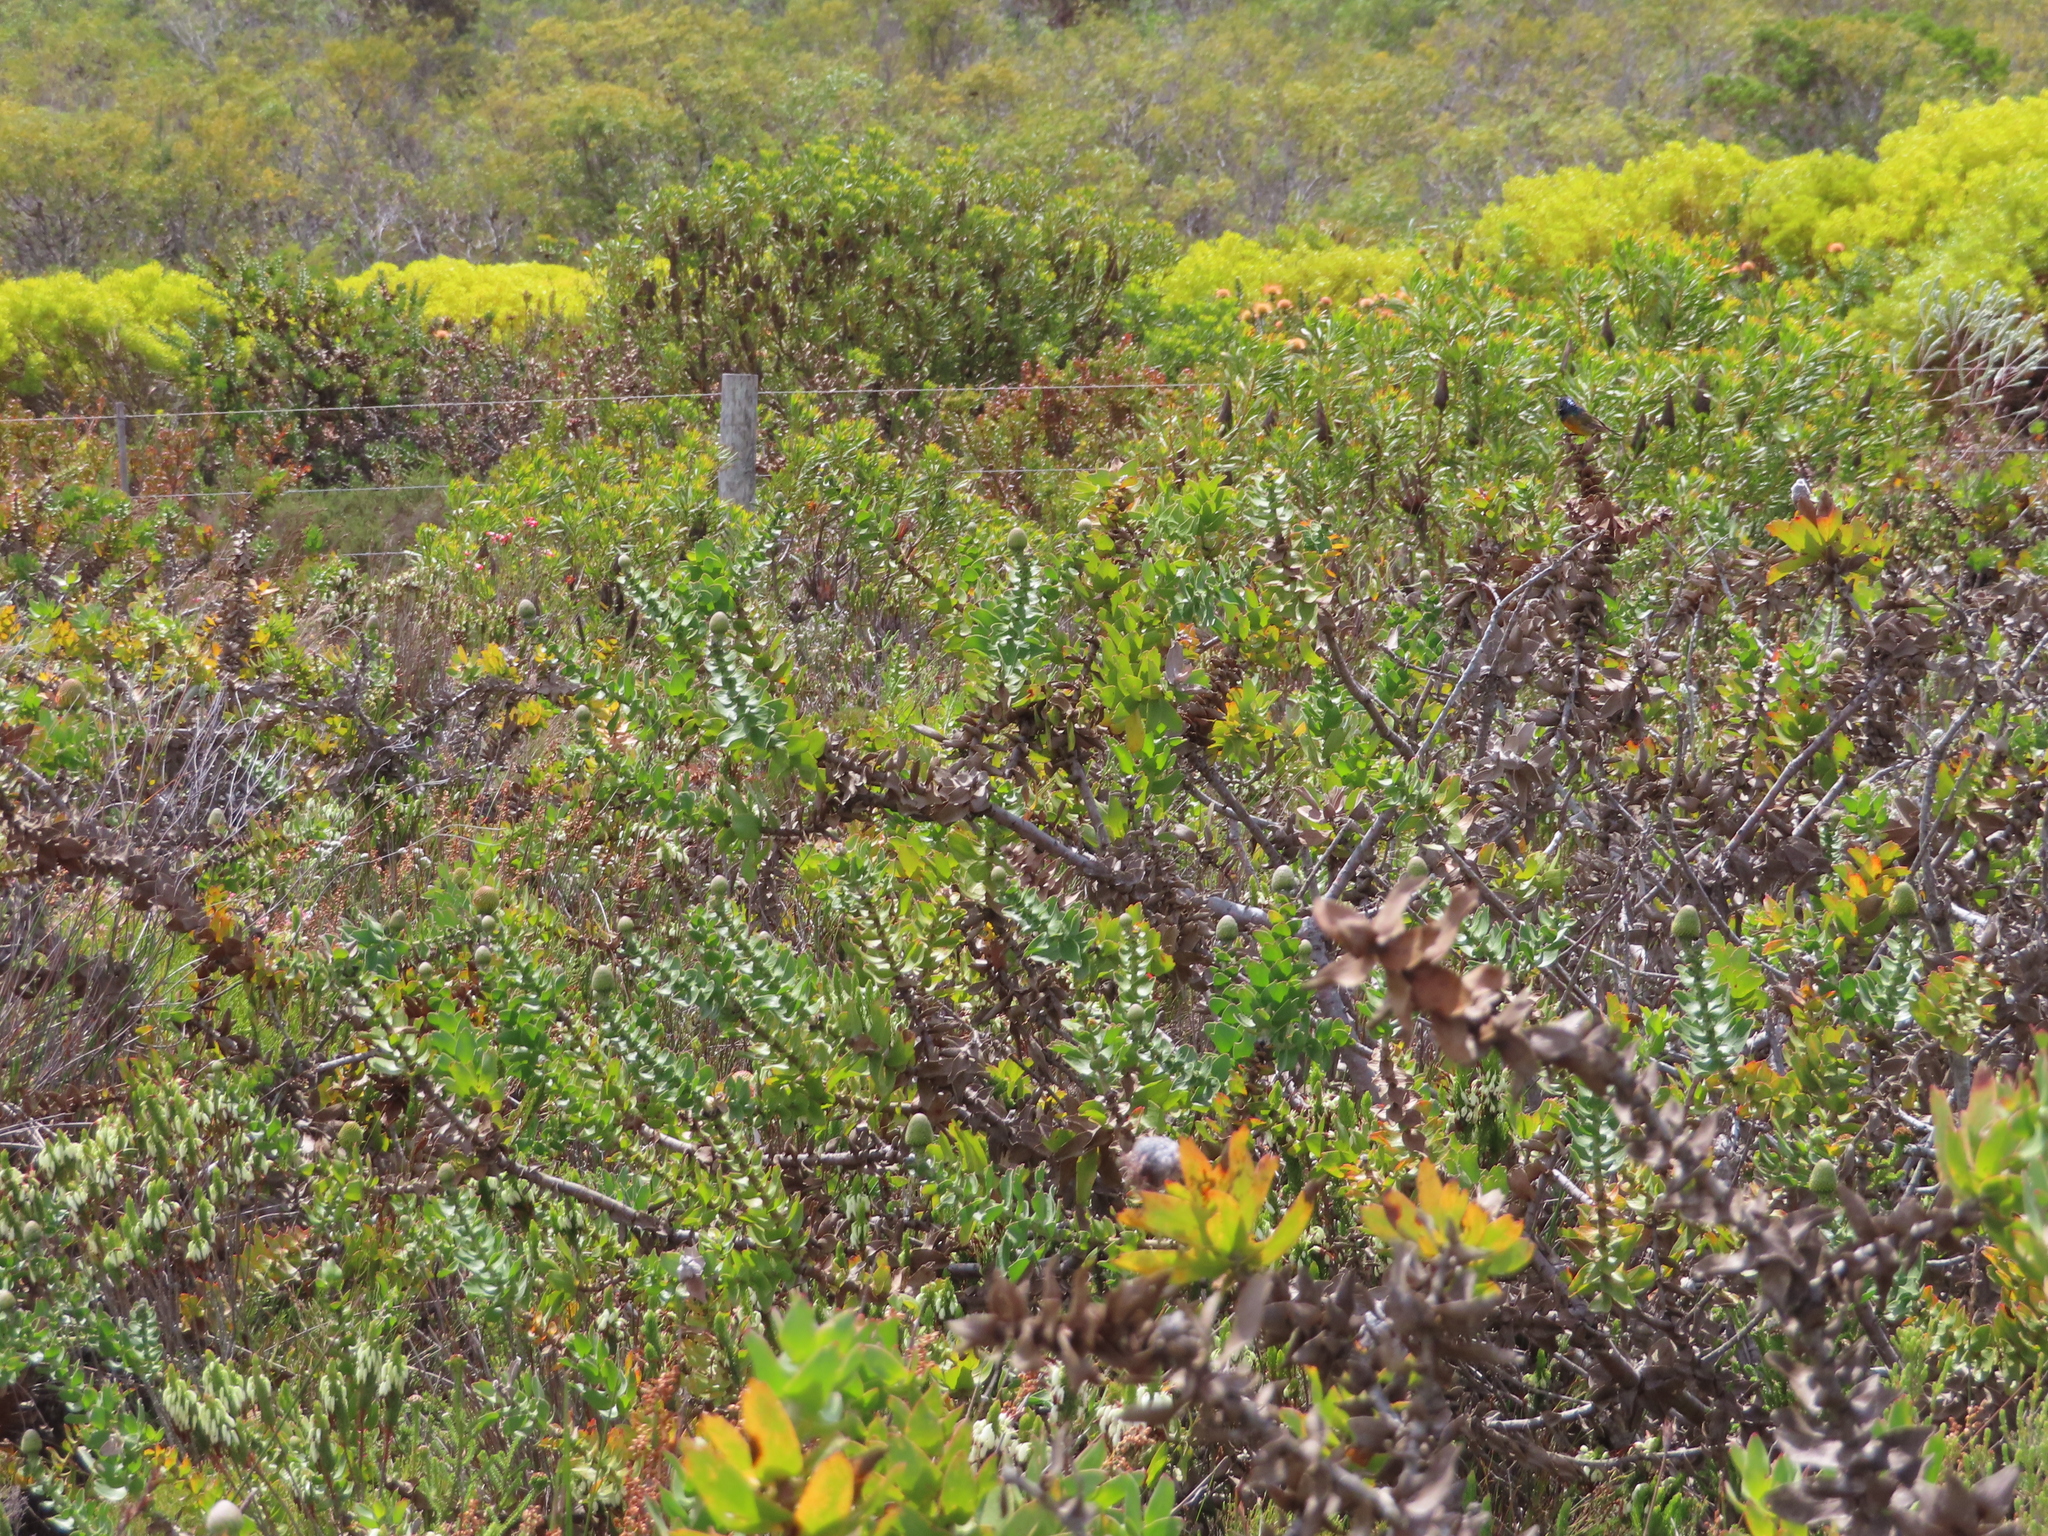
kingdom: Plantae
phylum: Tracheophyta
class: Magnoliopsida
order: Proteales
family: Proteaceae
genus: Leucospermum
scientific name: Leucospermum cordifolium
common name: Red pincushion-protea
